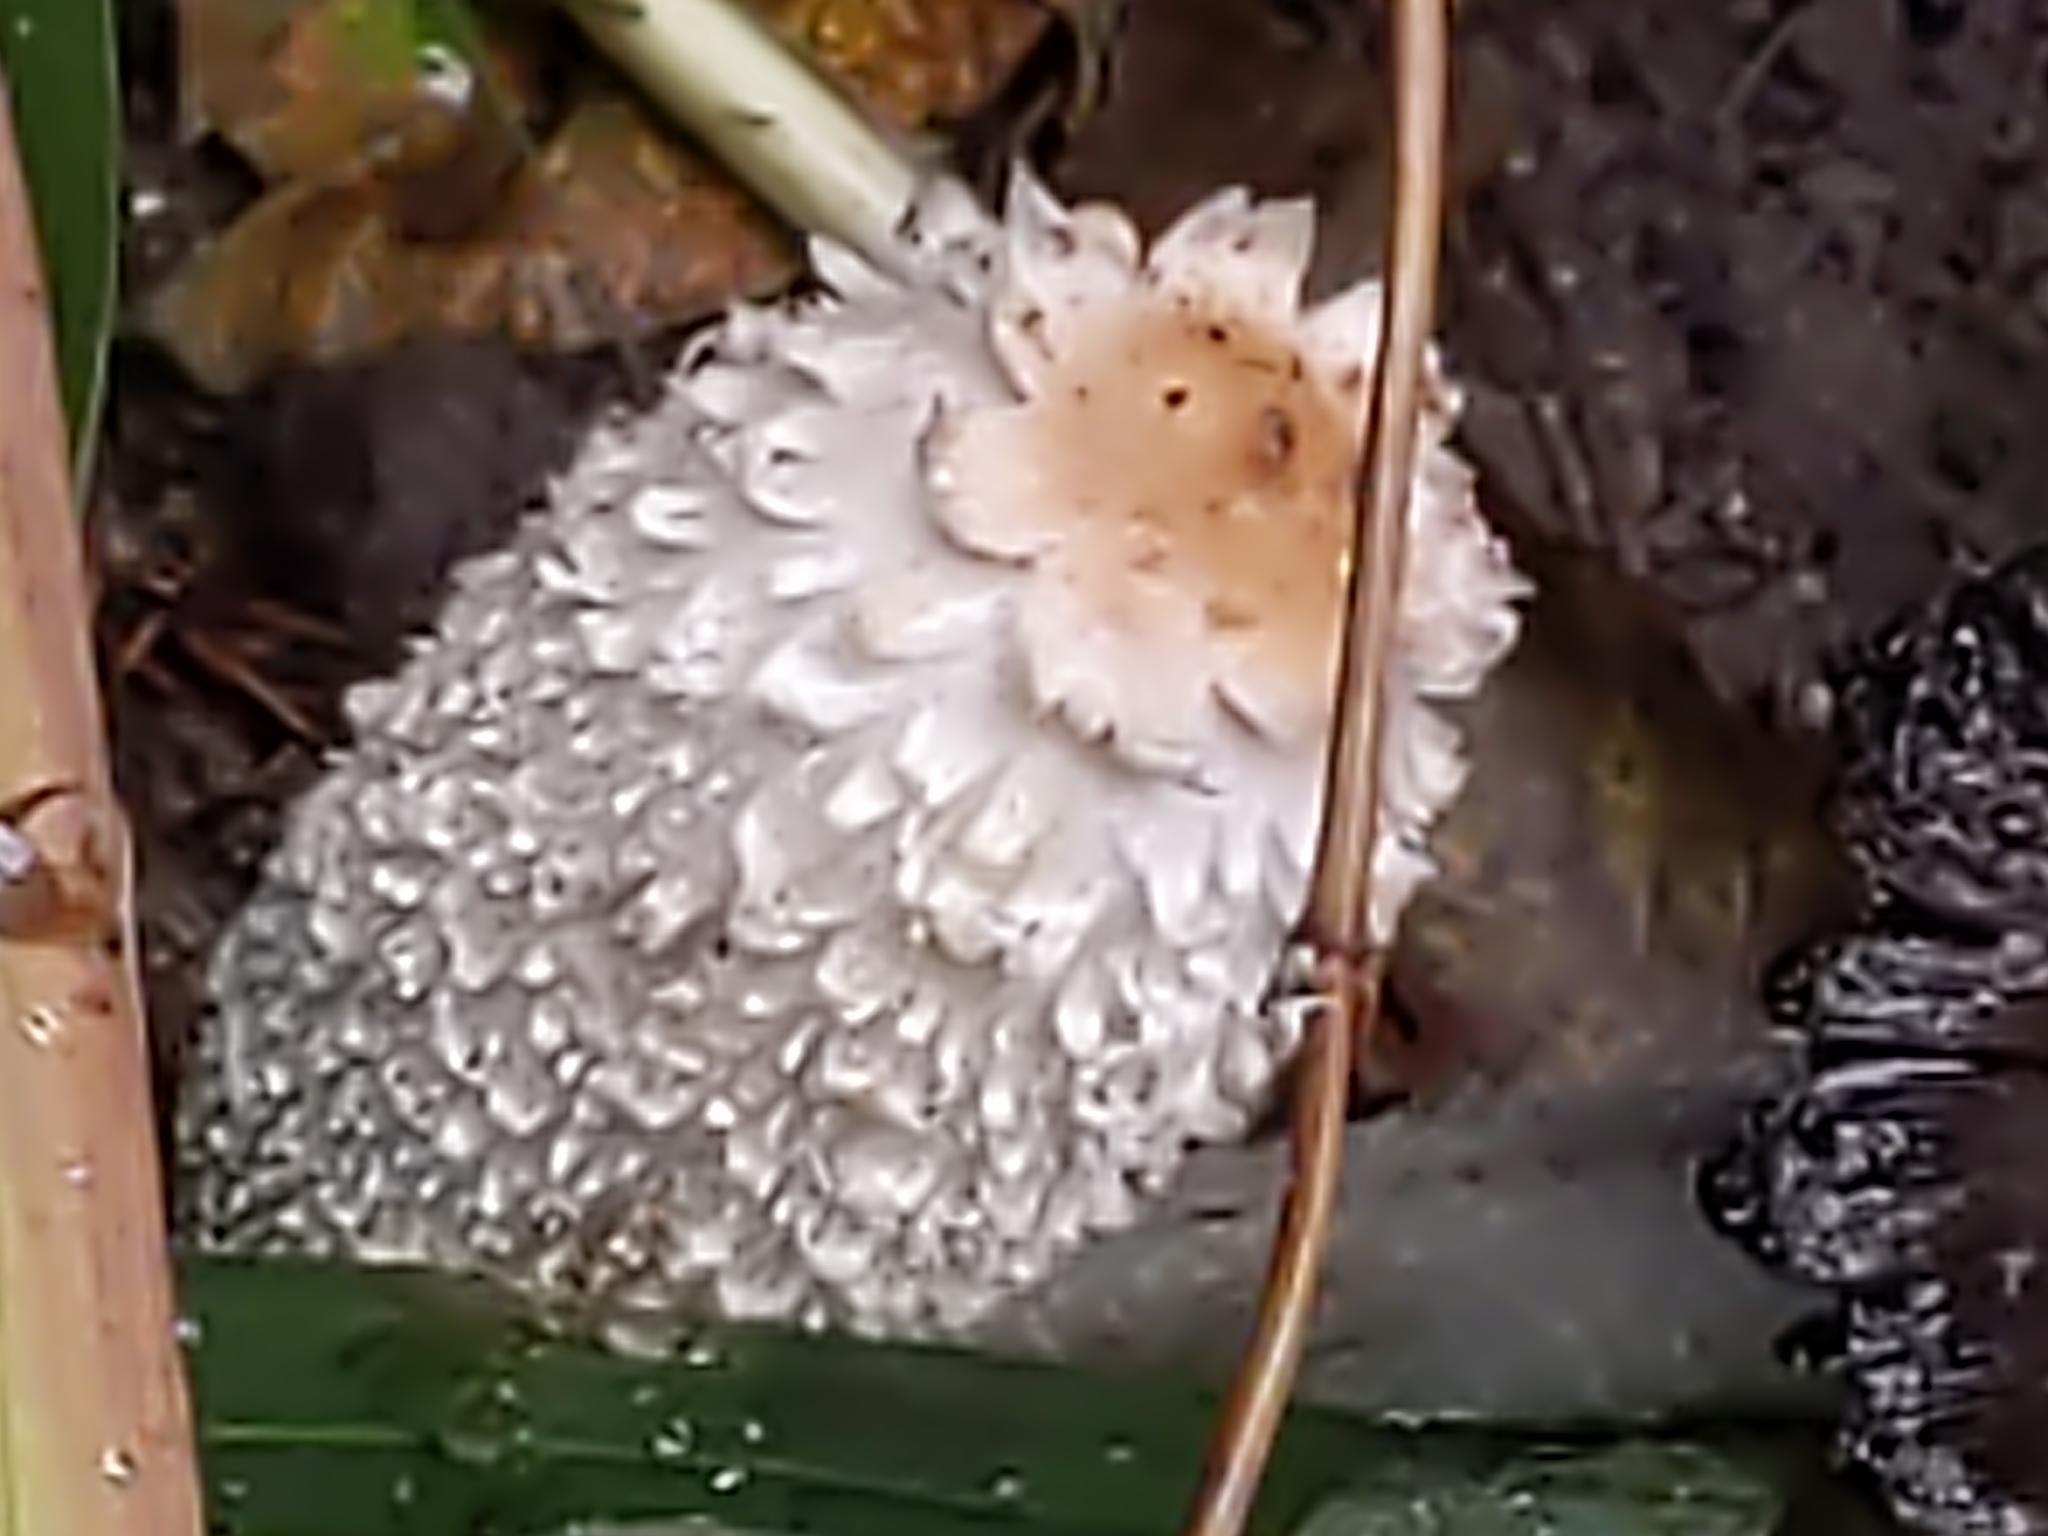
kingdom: Fungi
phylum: Basidiomycota
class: Agaricomycetes
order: Agaricales
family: Agaricaceae
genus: Coprinus
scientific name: Coprinus comatus
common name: Lawyer's wig
